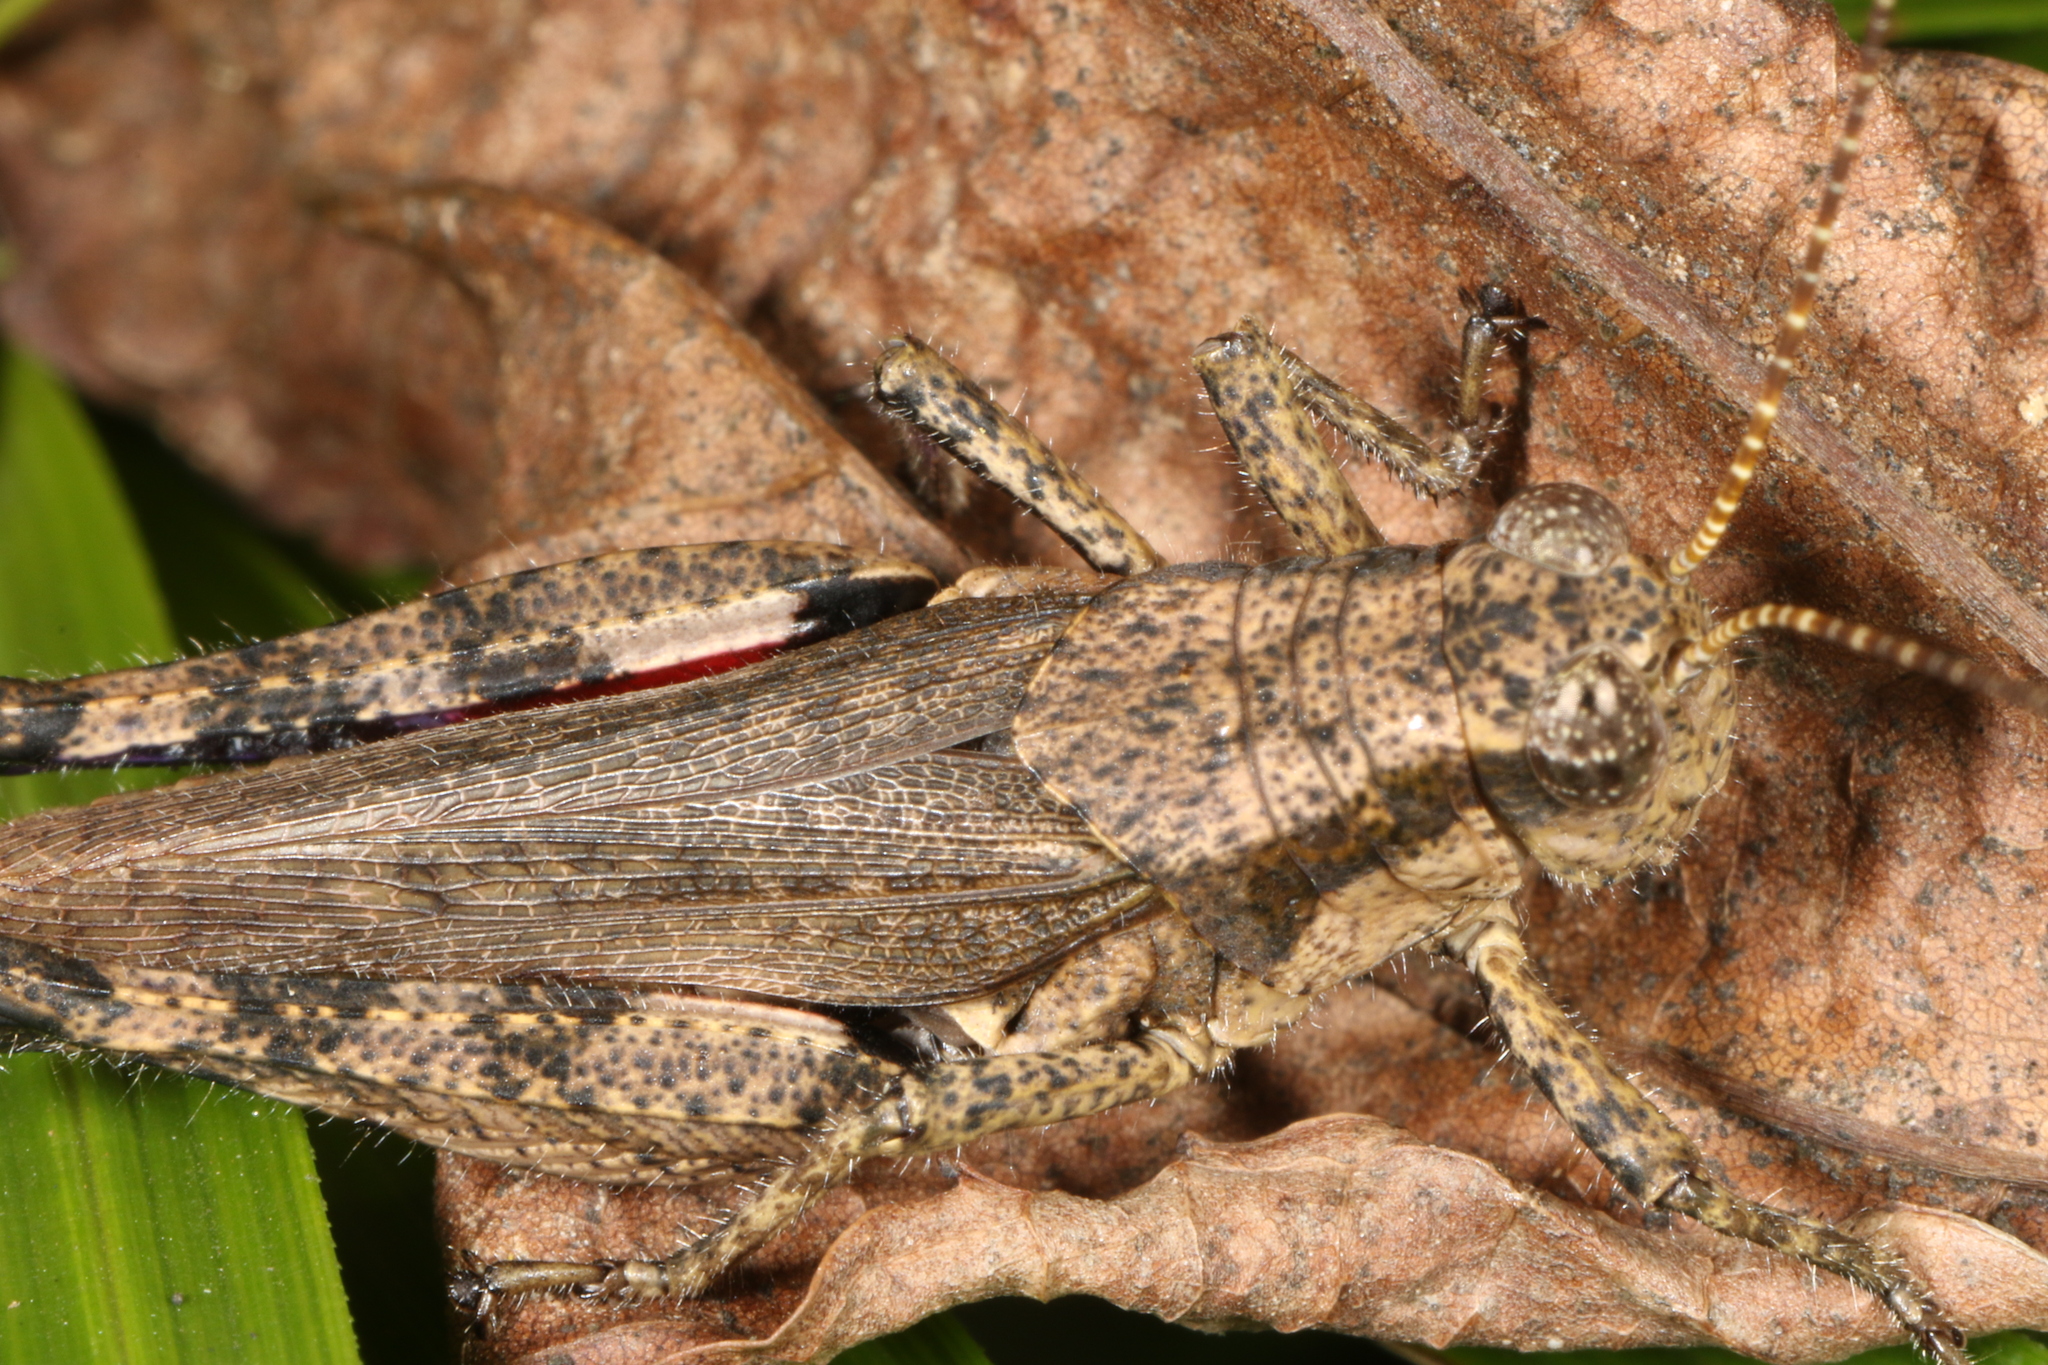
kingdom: Animalia
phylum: Arthropoda
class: Insecta
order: Orthoptera
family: Acrididae
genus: Ronderosia
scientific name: Ronderosia bergii
